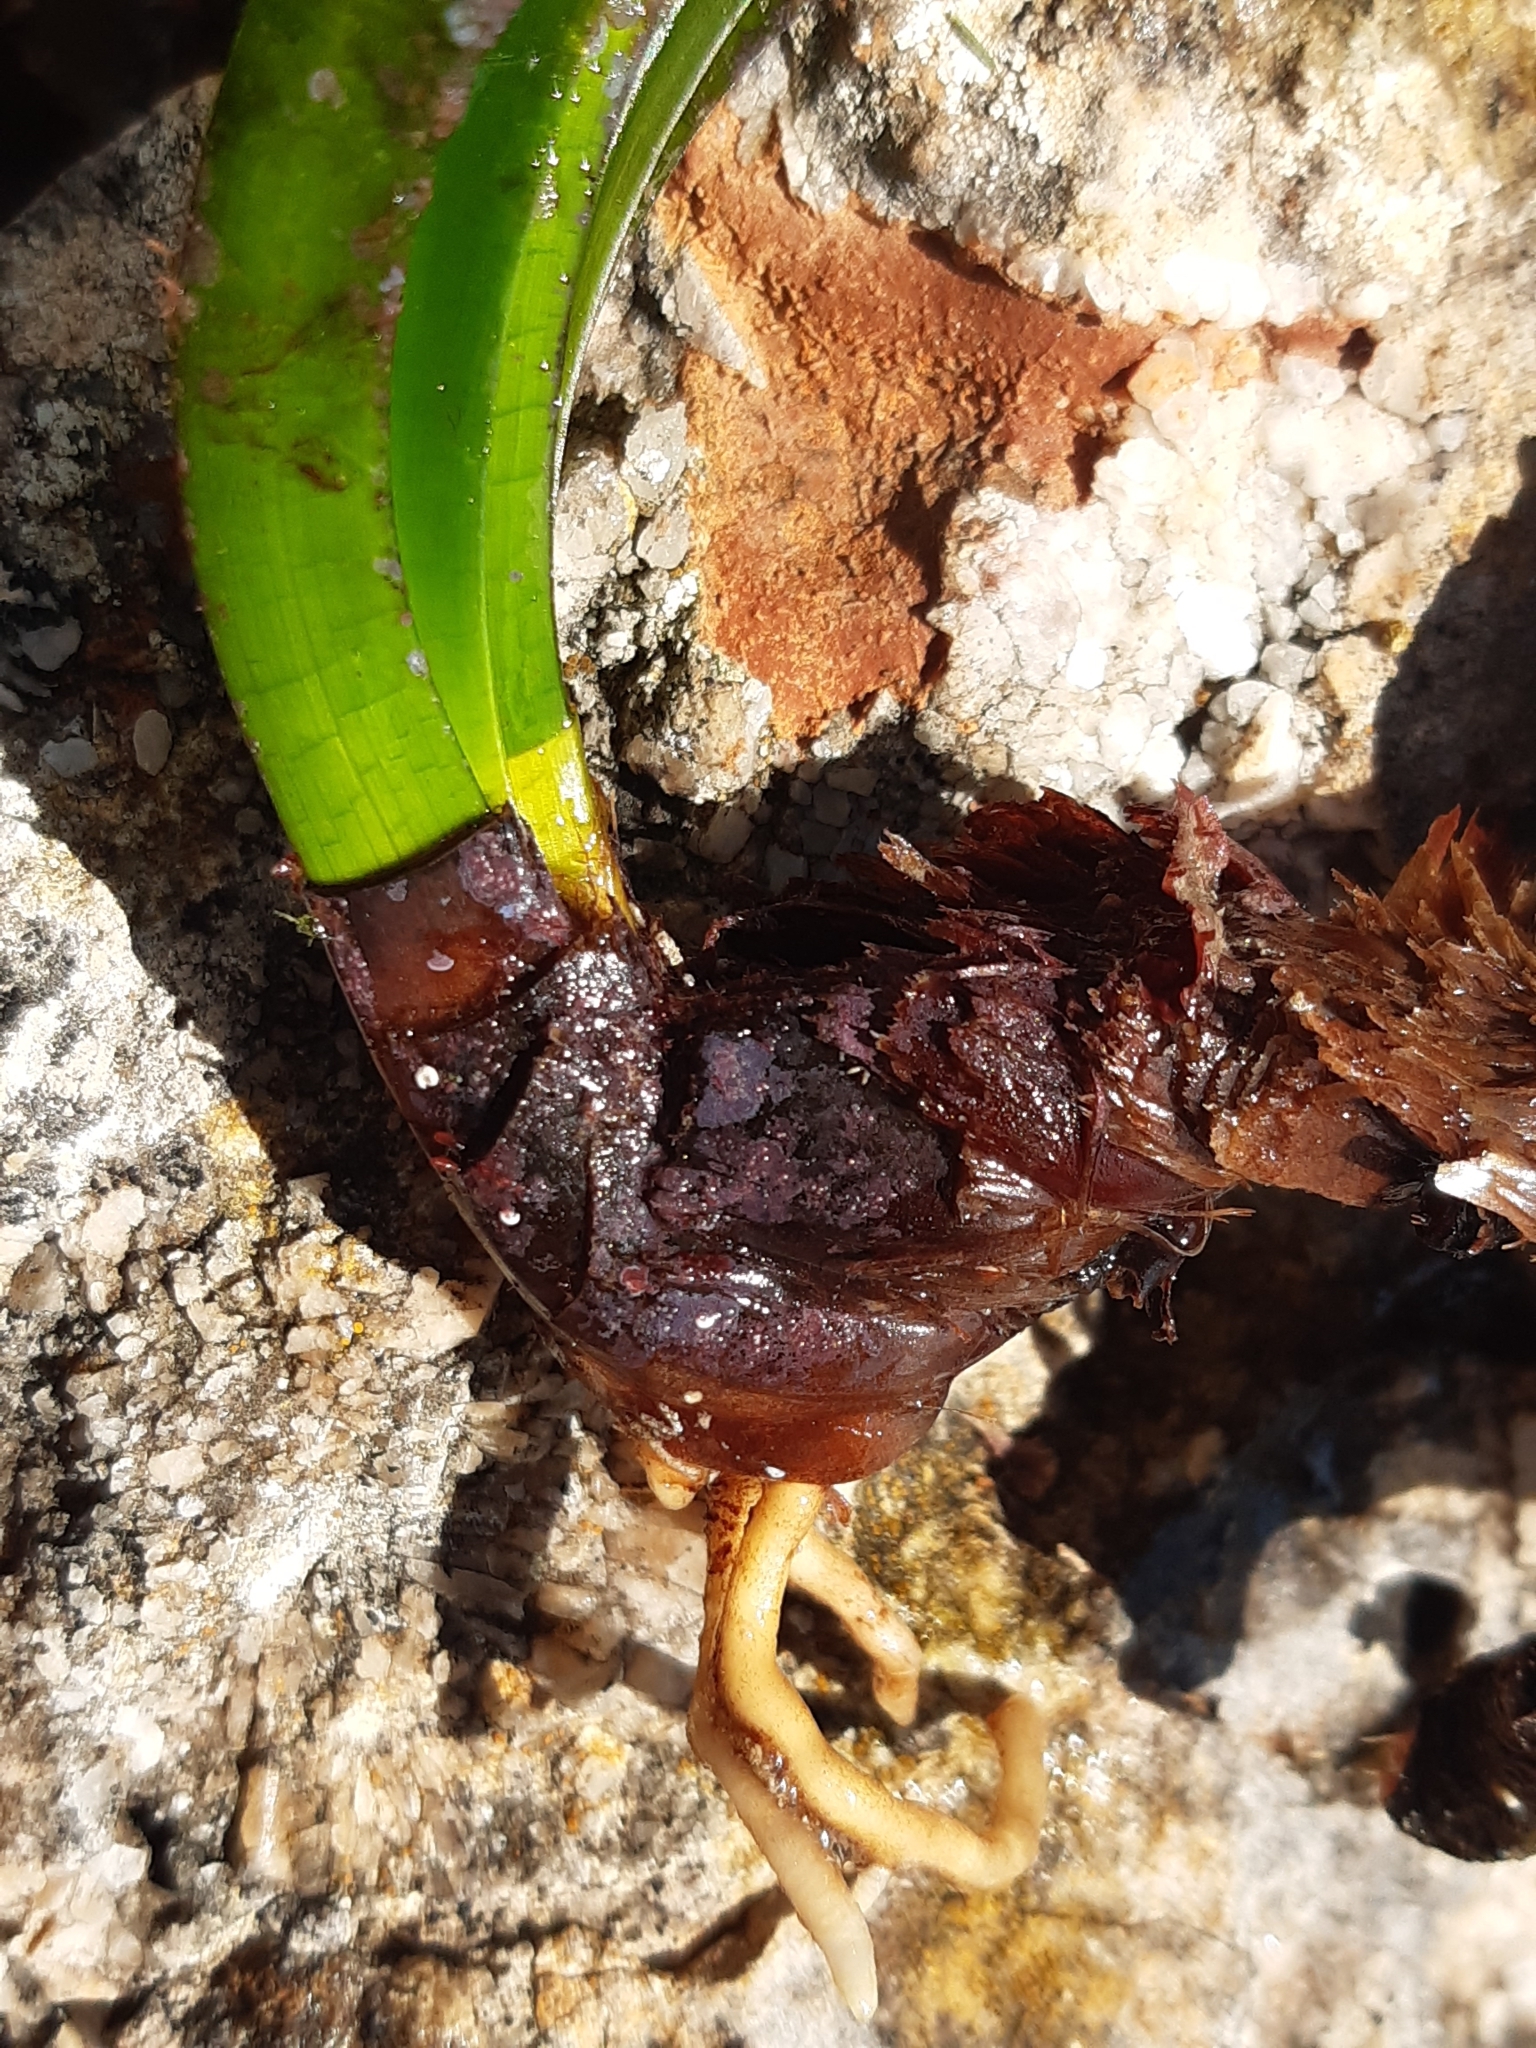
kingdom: Plantae
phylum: Tracheophyta
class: Liliopsida
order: Alismatales
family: Posidoniaceae
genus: Posidonia
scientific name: Posidonia oceanica
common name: Mediterranean tapeweed
